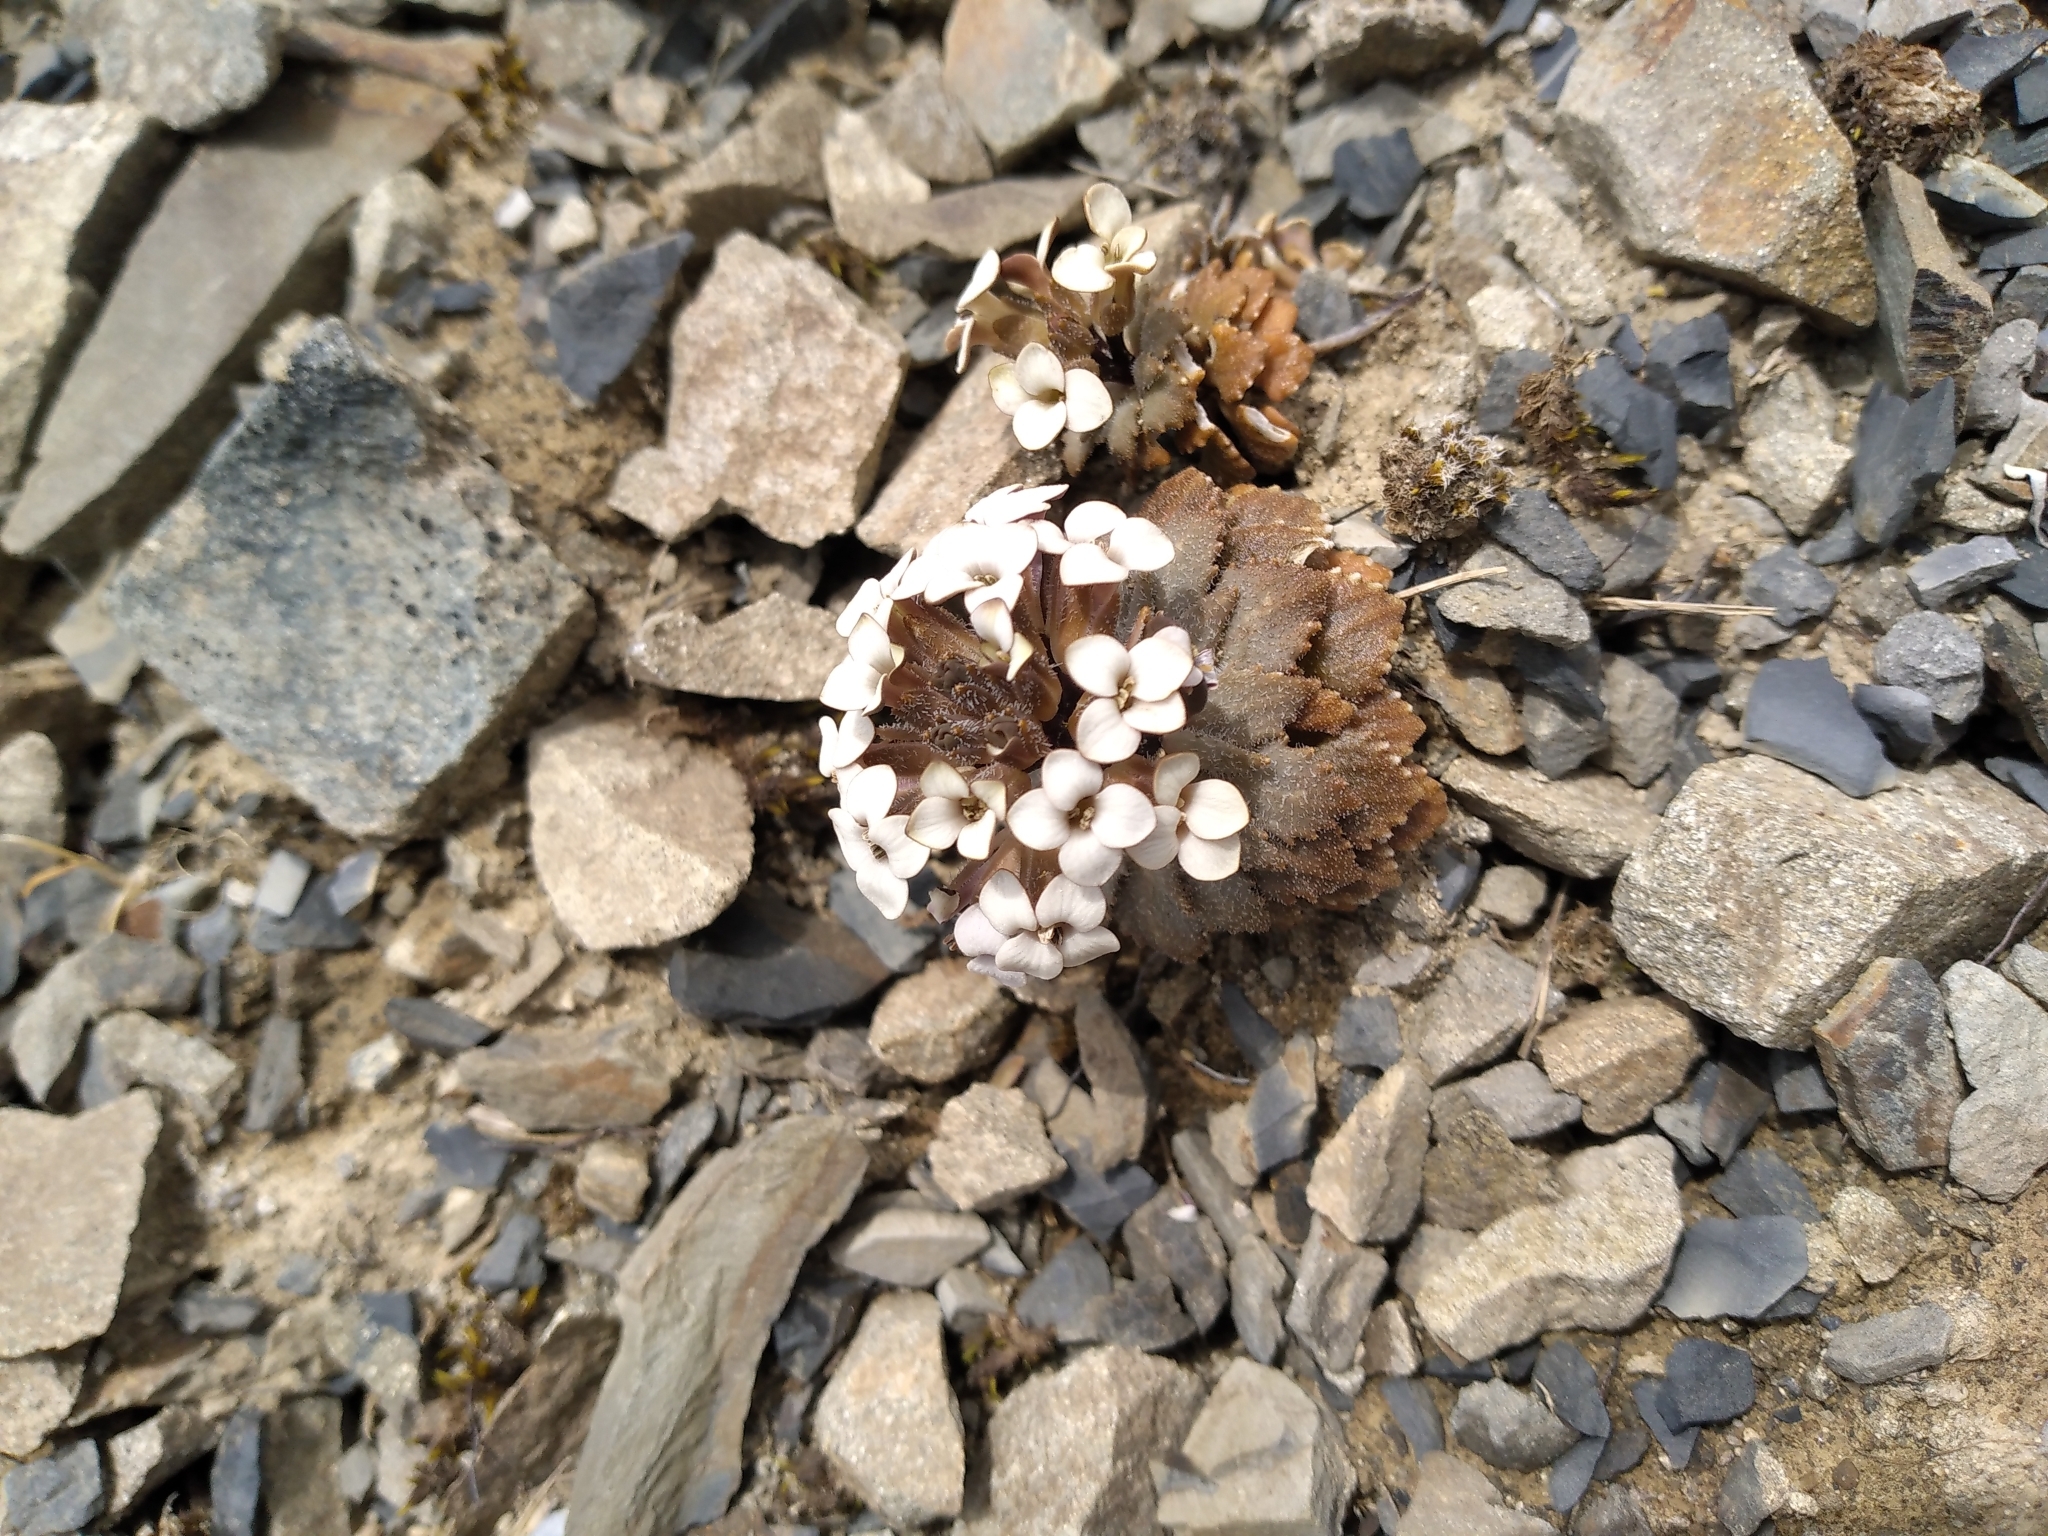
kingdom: Plantae
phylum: Tracheophyta
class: Magnoliopsida
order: Brassicales
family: Brassicaceae
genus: Notothlaspi
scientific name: Notothlaspi rosulatum
